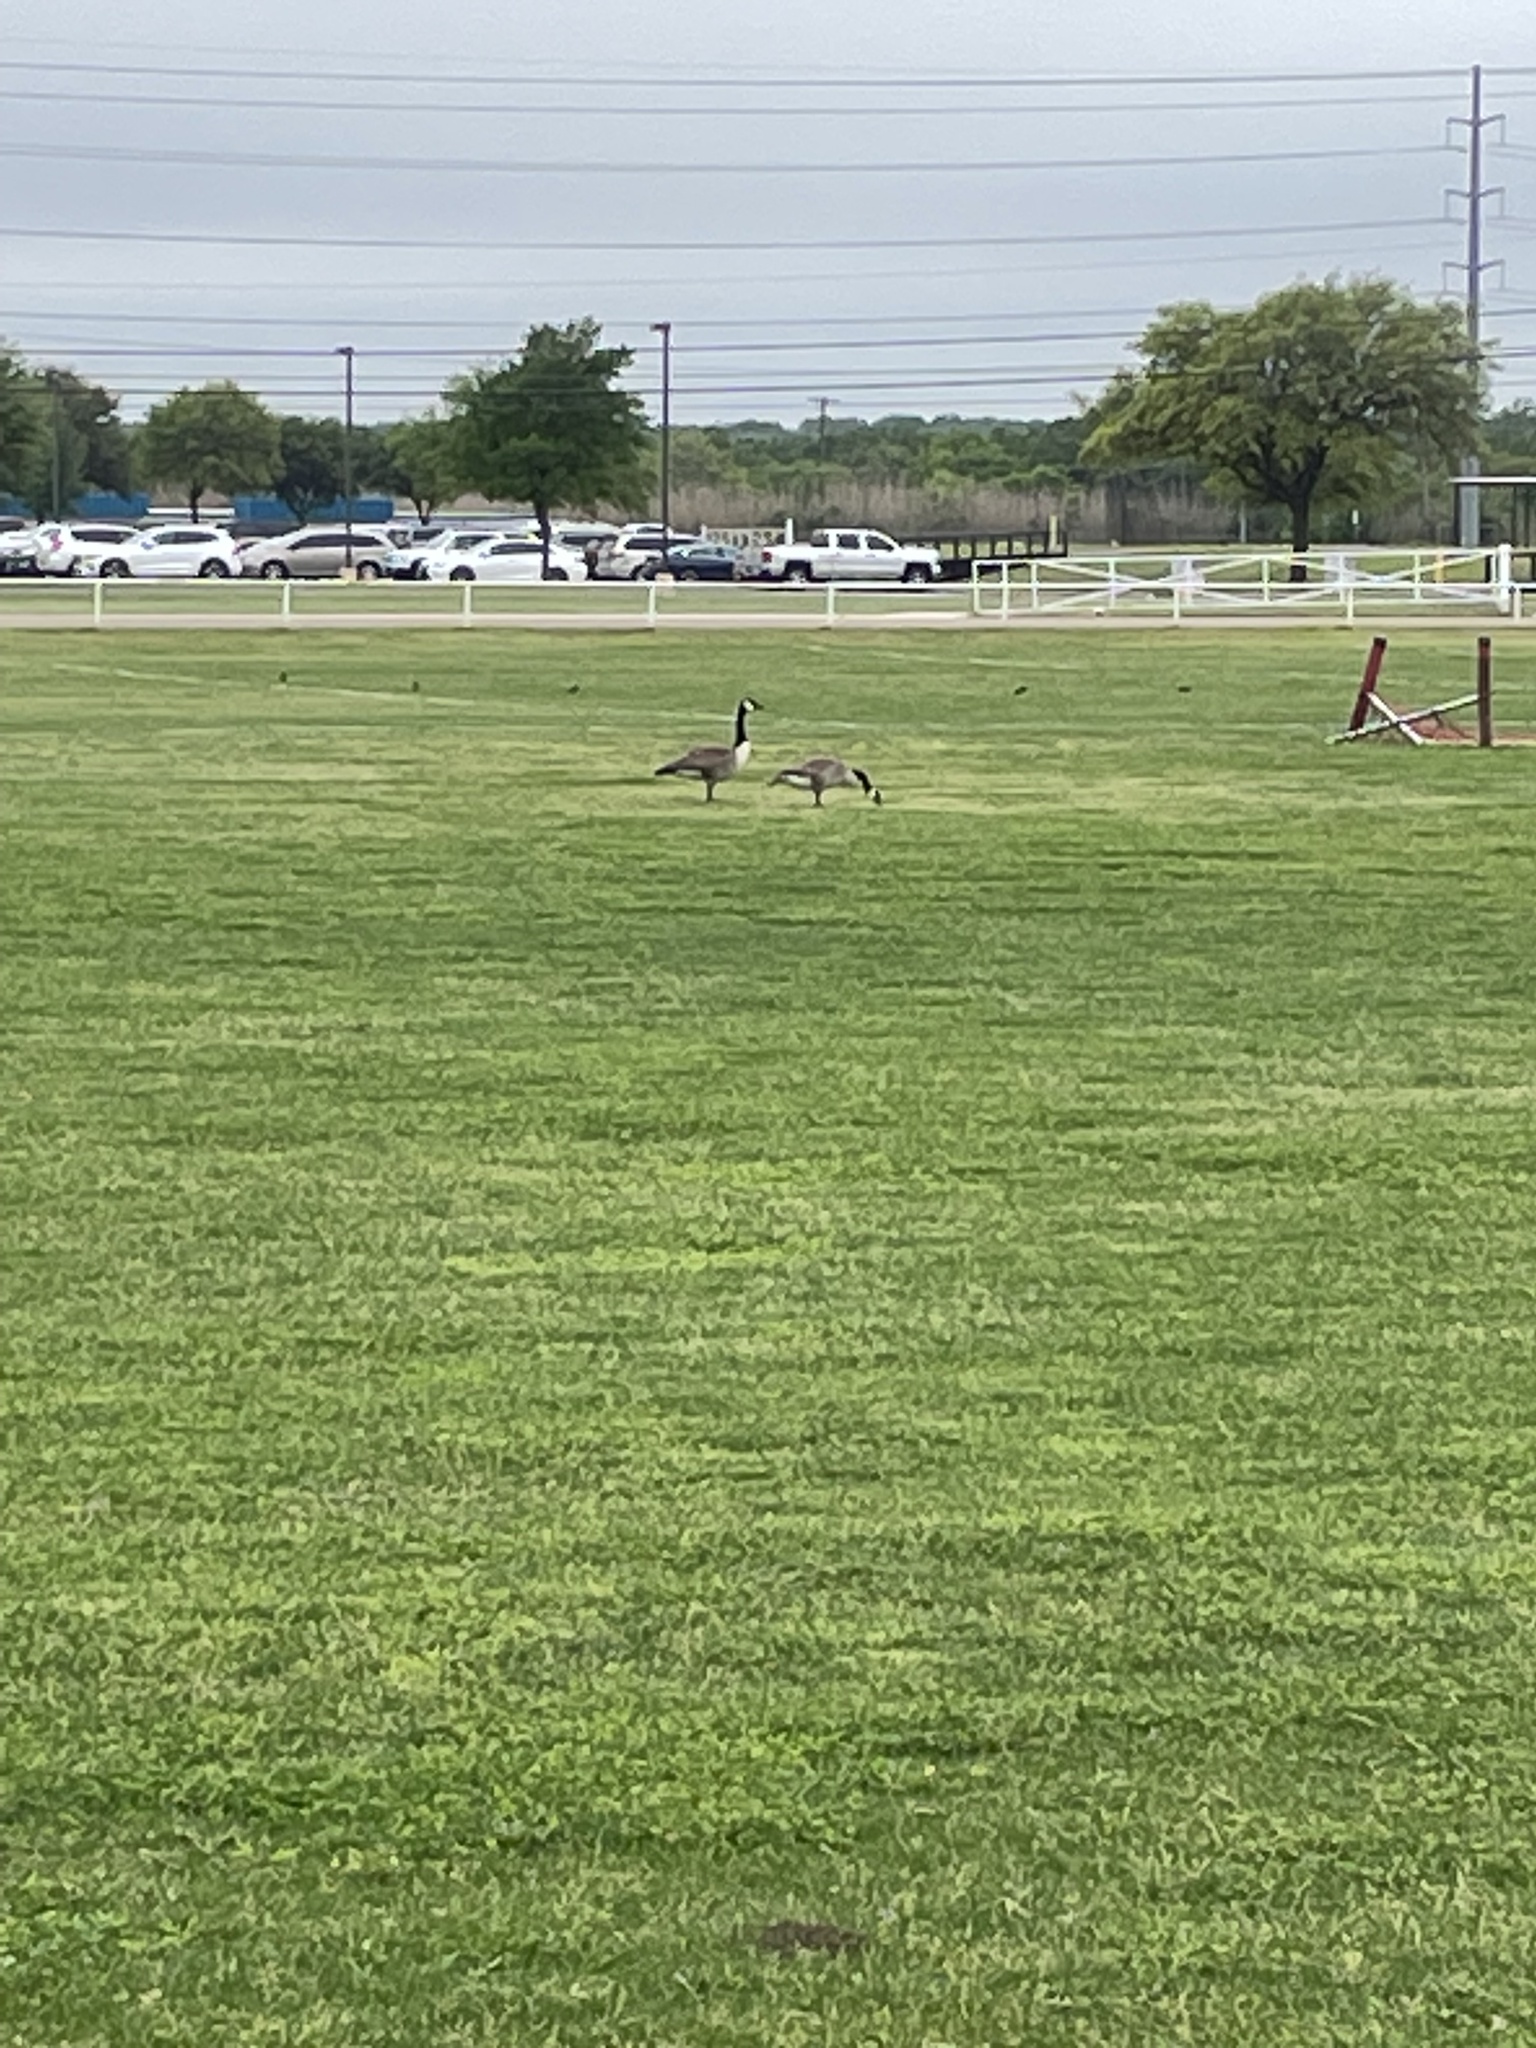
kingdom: Animalia
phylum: Chordata
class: Aves
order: Anseriformes
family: Anatidae
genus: Branta
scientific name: Branta canadensis
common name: Canada goose
